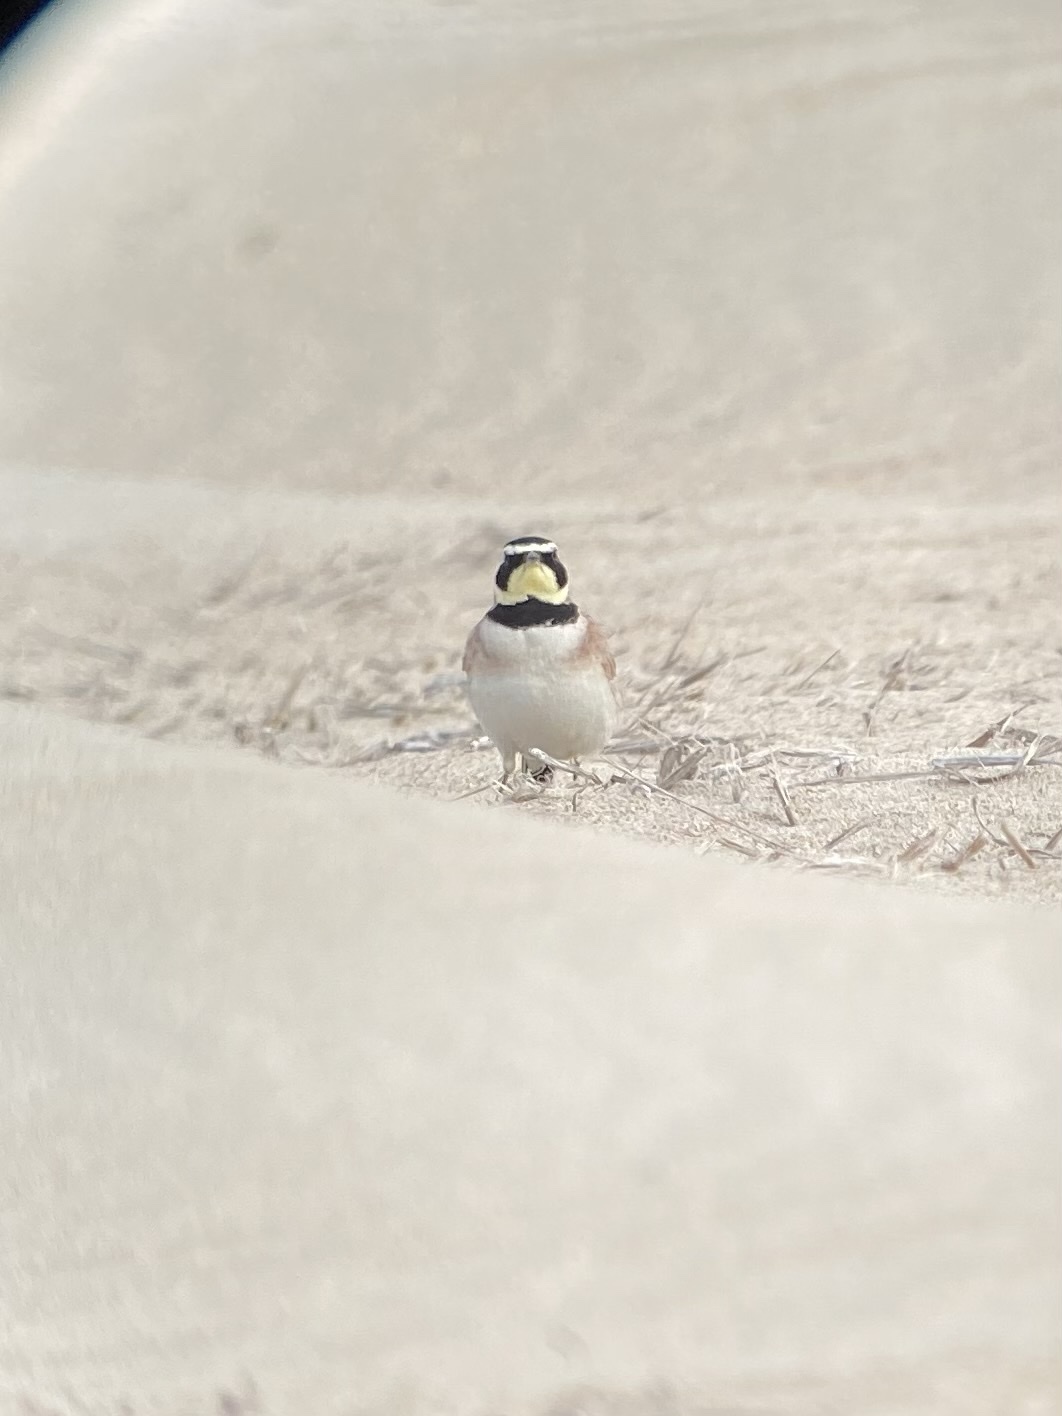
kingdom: Animalia
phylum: Chordata
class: Aves
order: Passeriformes
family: Alaudidae
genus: Eremophila
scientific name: Eremophila alpestris
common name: Horned lark
